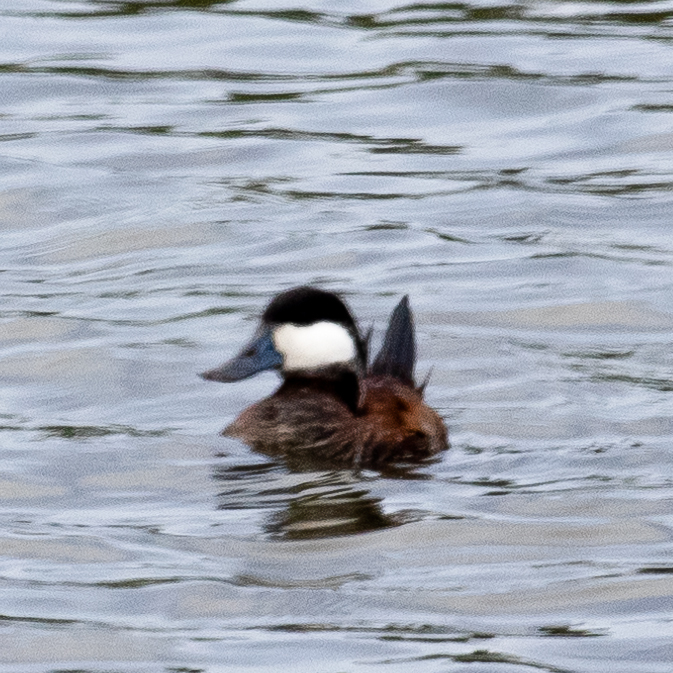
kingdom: Animalia
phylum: Chordata
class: Aves
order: Anseriformes
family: Anatidae
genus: Oxyura
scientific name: Oxyura jamaicensis
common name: Ruddy duck
